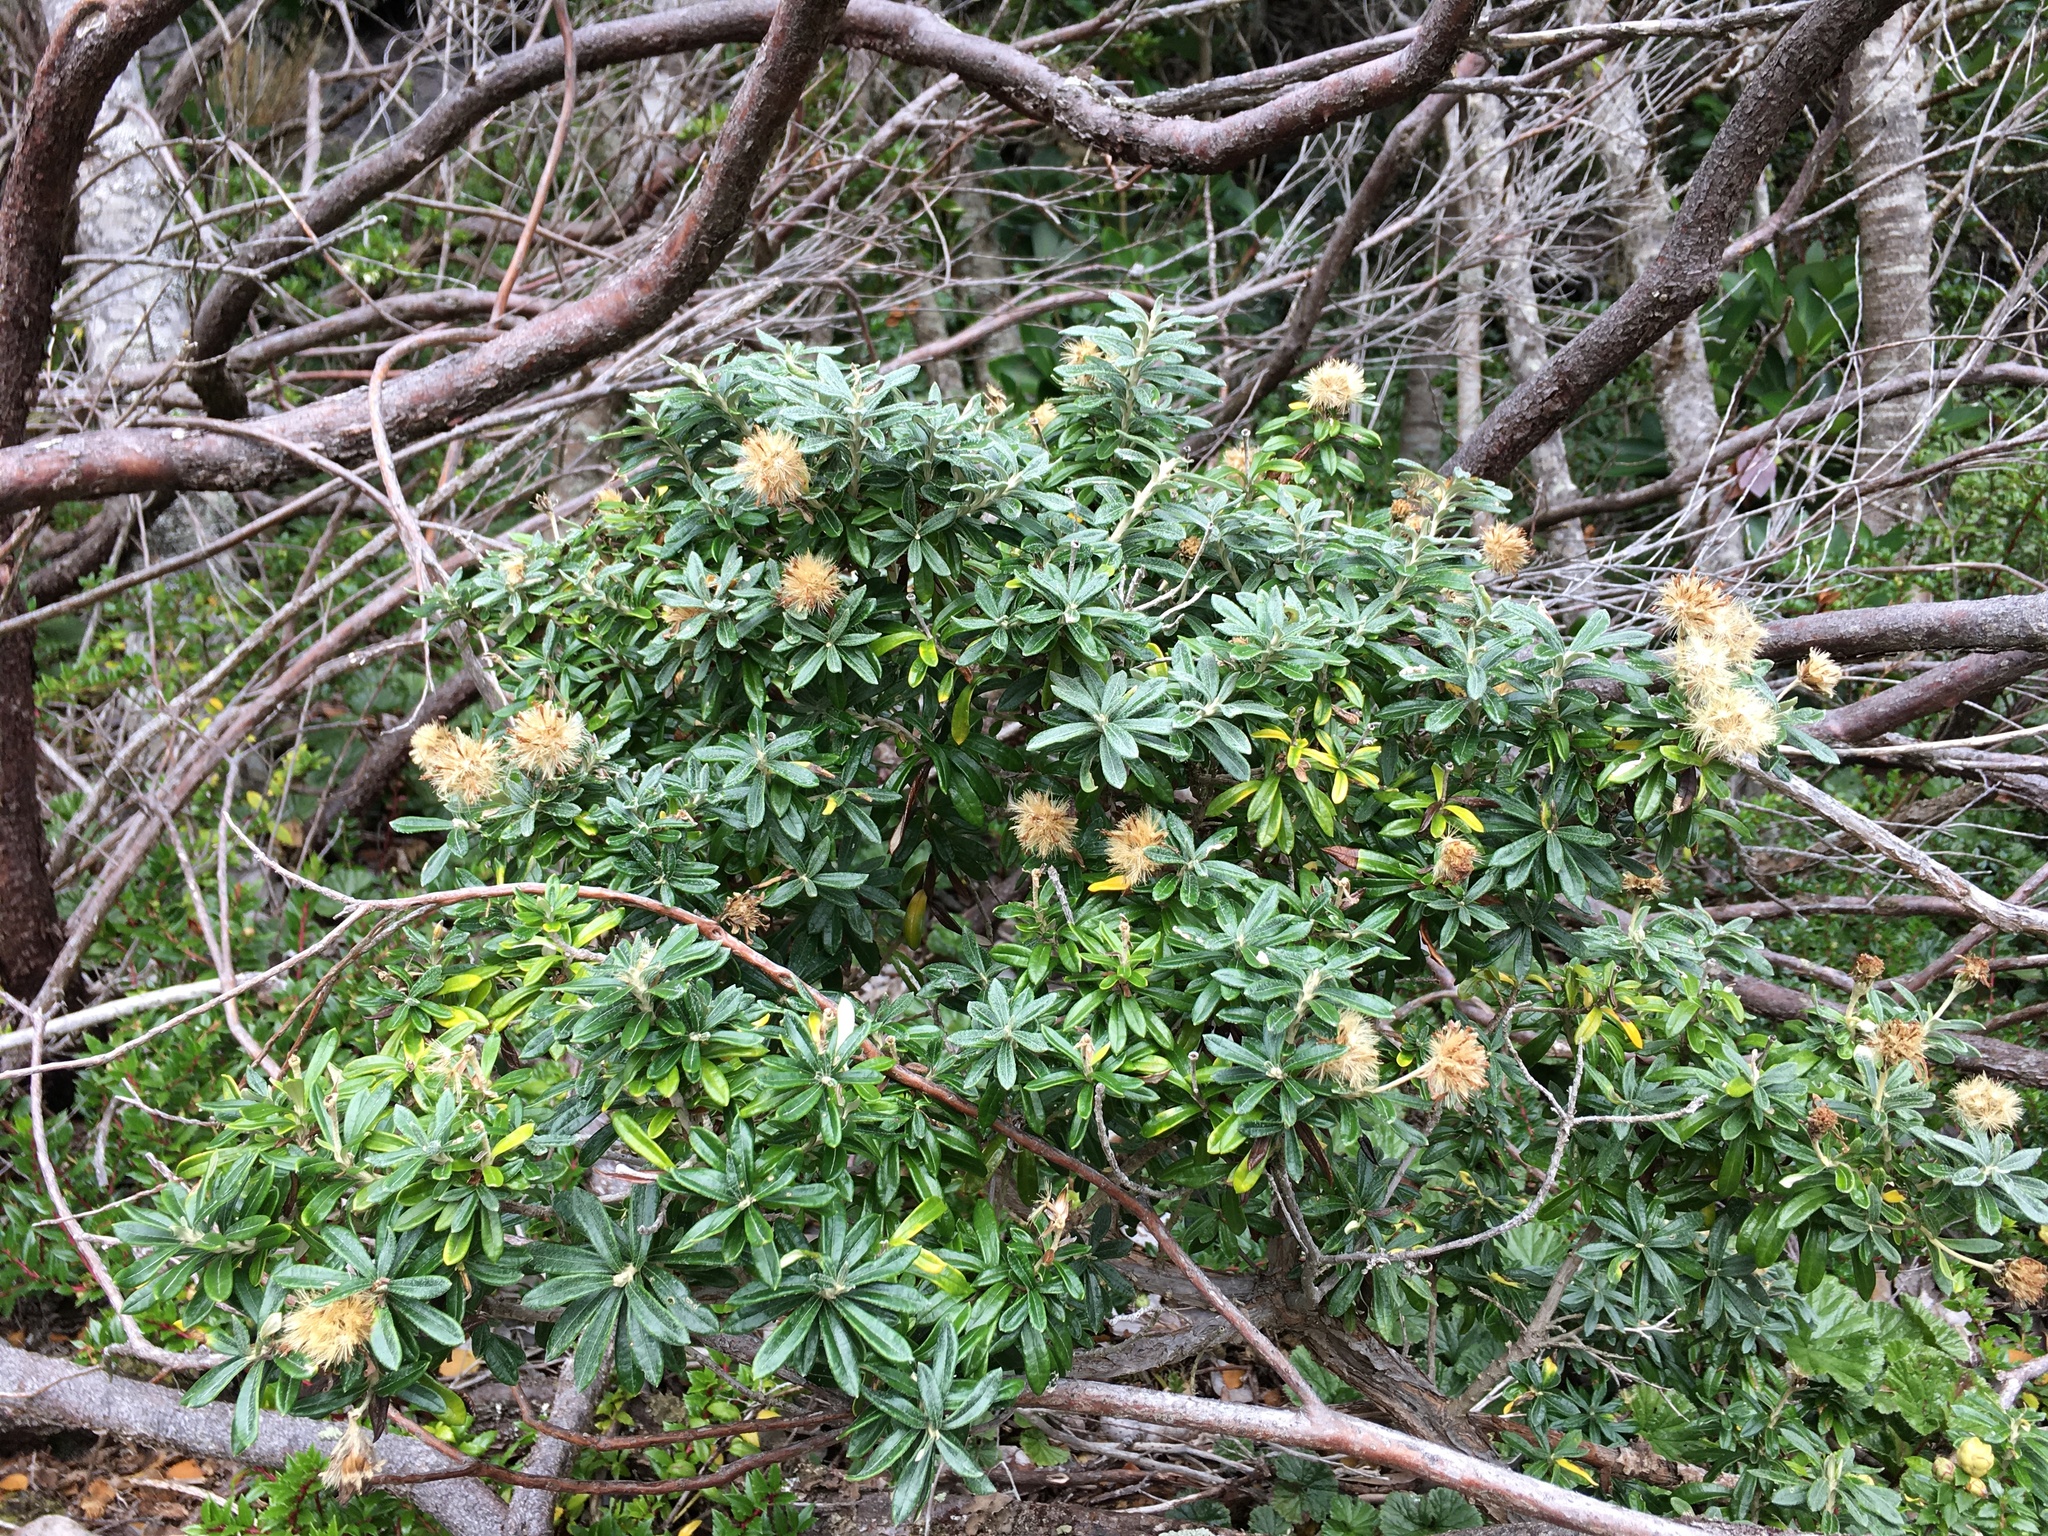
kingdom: Plantae
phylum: Tracheophyta
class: Magnoliopsida
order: Asterales
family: Asteraceae
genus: Chiliotrichum
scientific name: Chiliotrichum diffusum
